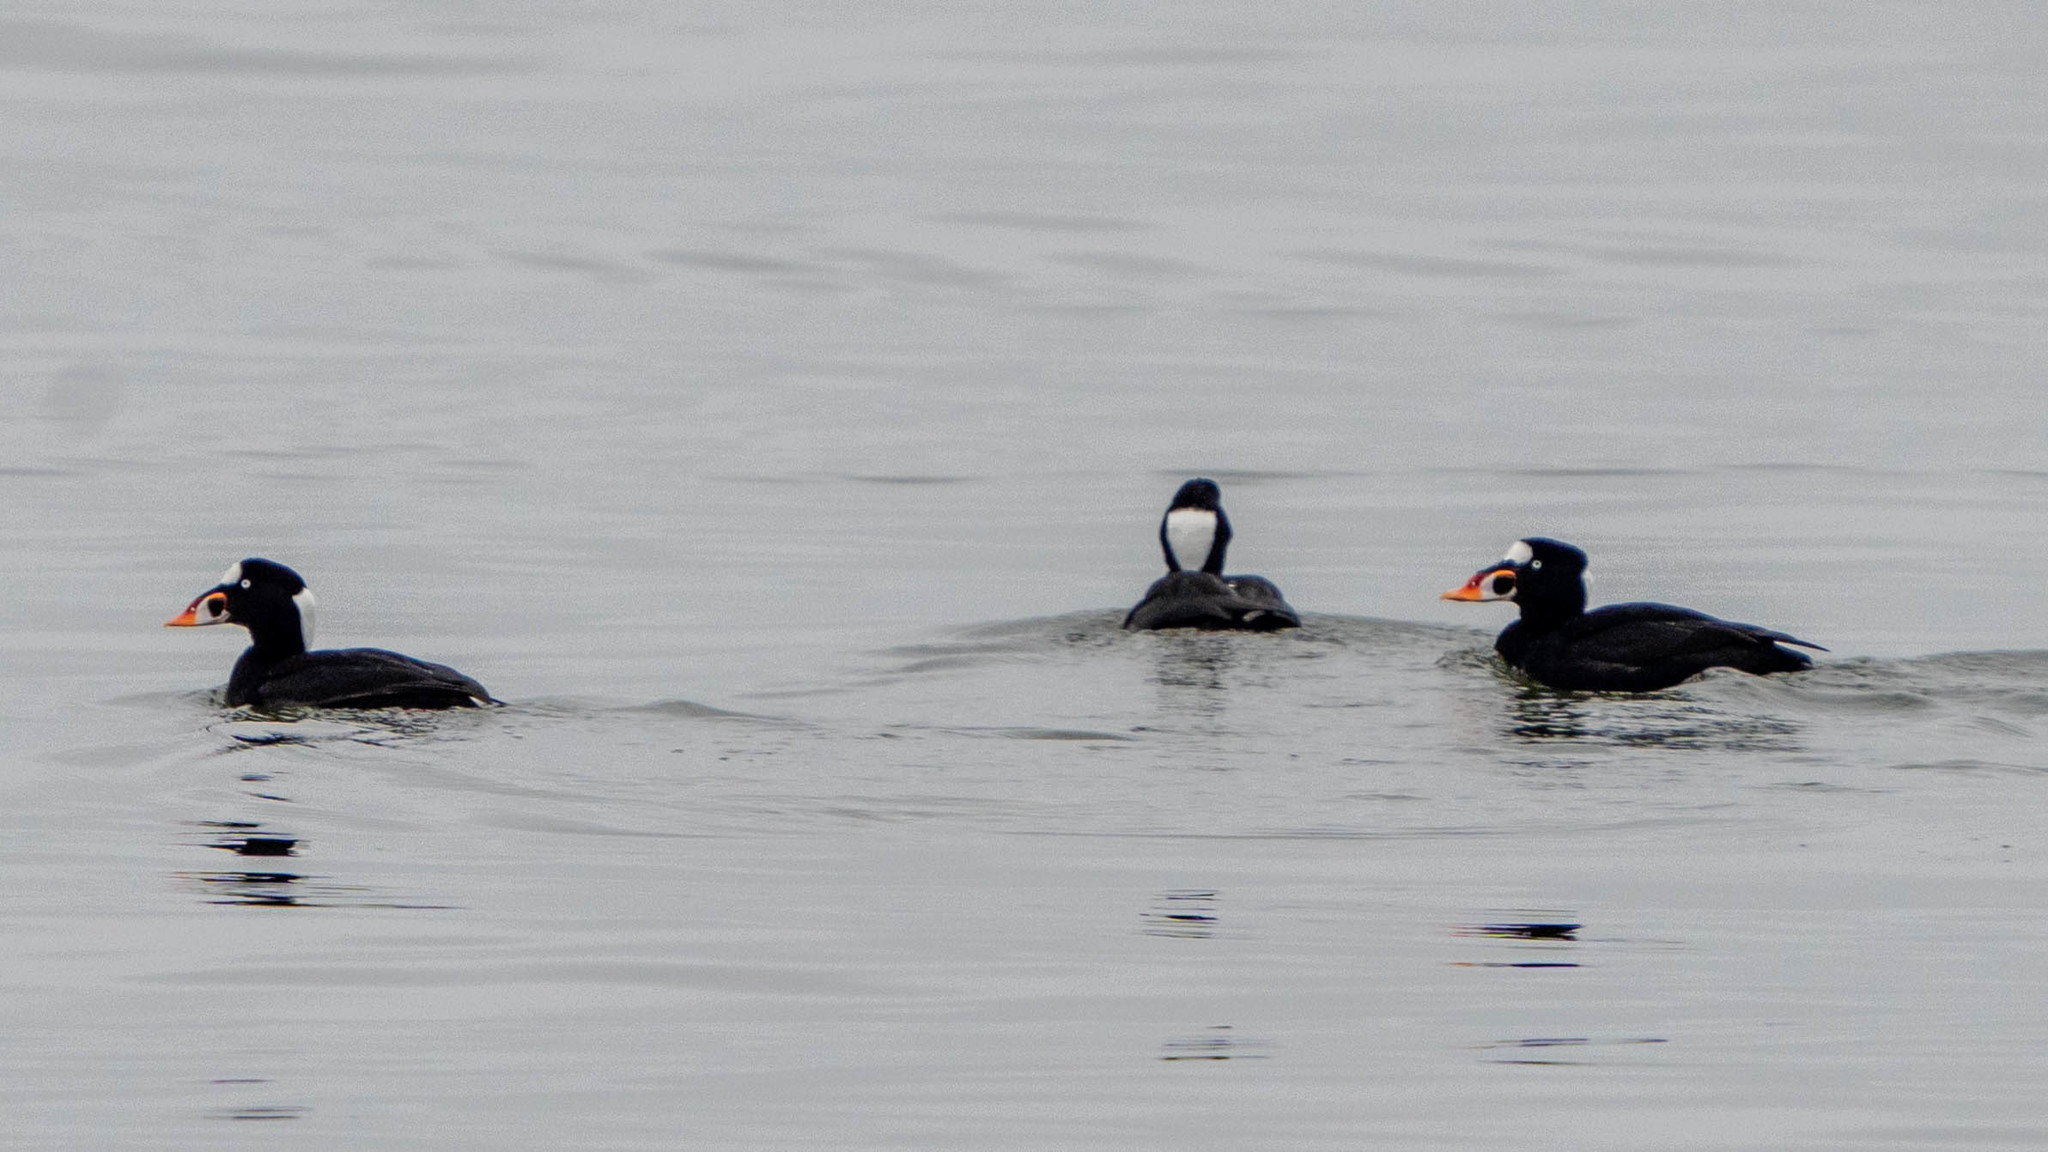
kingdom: Animalia
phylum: Chordata
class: Aves
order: Anseriformes
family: Anatidae
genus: Melanitta
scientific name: Melanitta perspicillata
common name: Surf scoter
